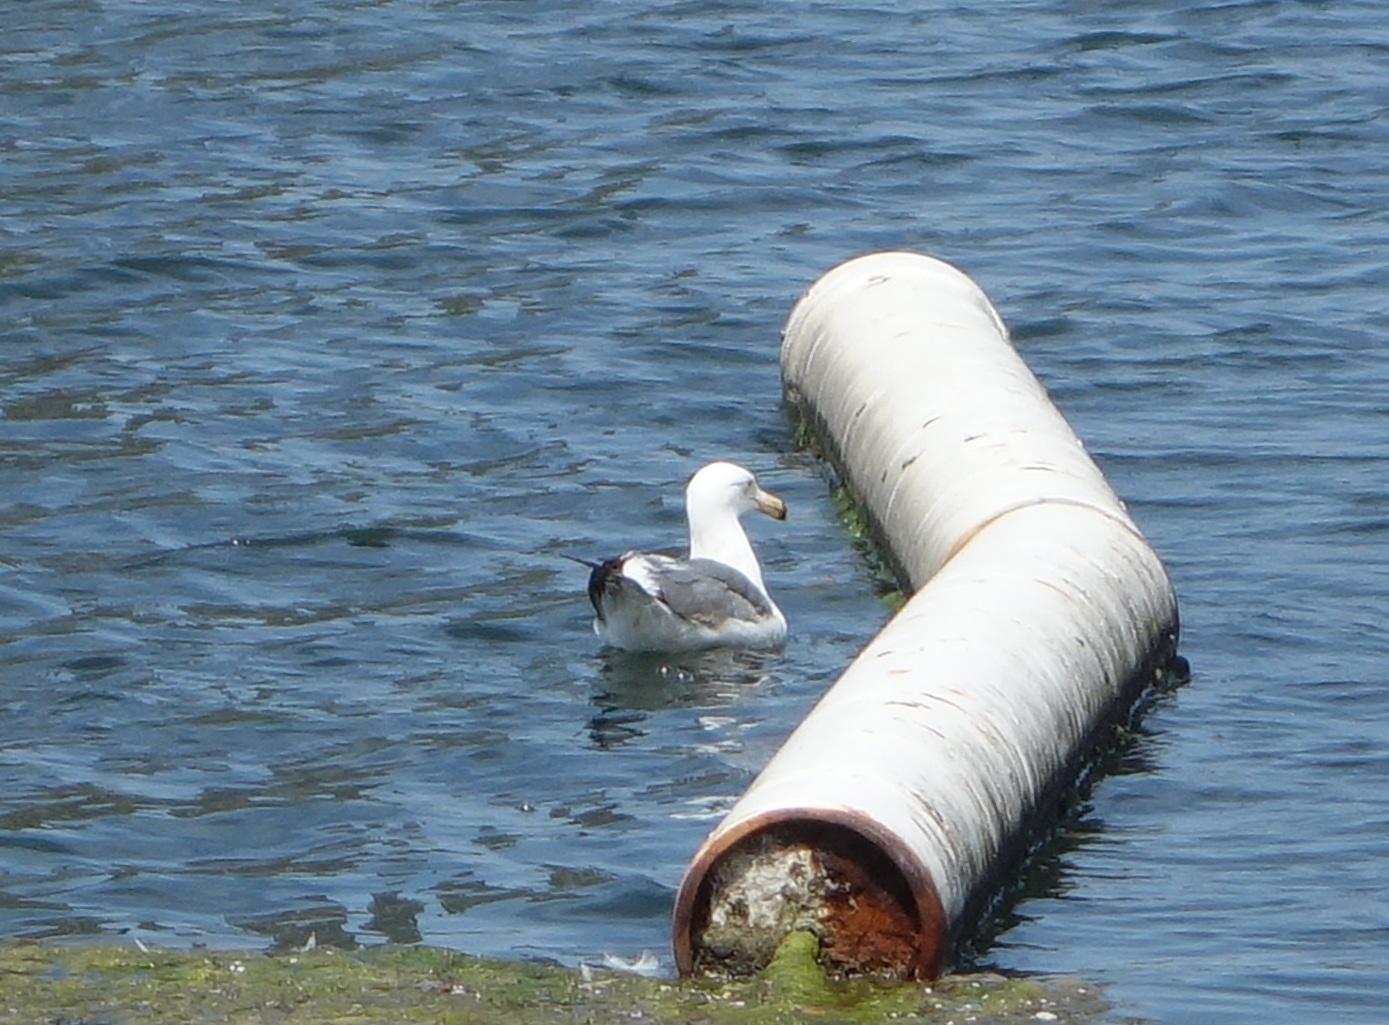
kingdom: Animalia
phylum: Chordata
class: Aves
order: Charadriiformes
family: Laridae
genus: Larus
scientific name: Larus delawarensis
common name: Ring-billed gull
